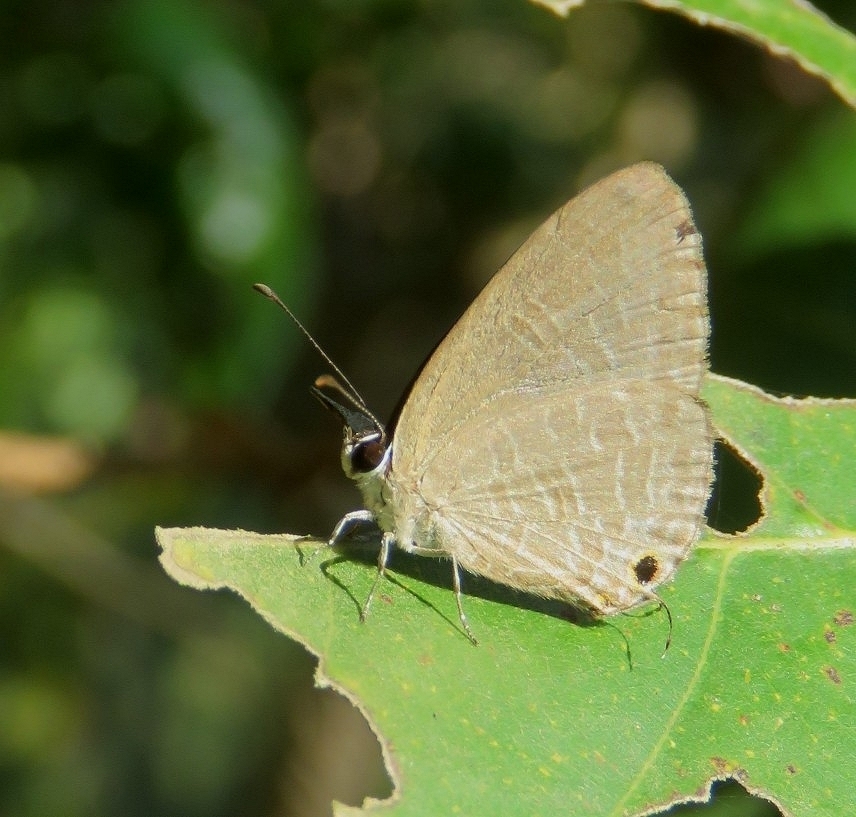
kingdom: Animalia
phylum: Arthropoda
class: Insecta
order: Lepidoptera
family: Lycaenidae
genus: Jamides
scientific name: Jamides bochus
